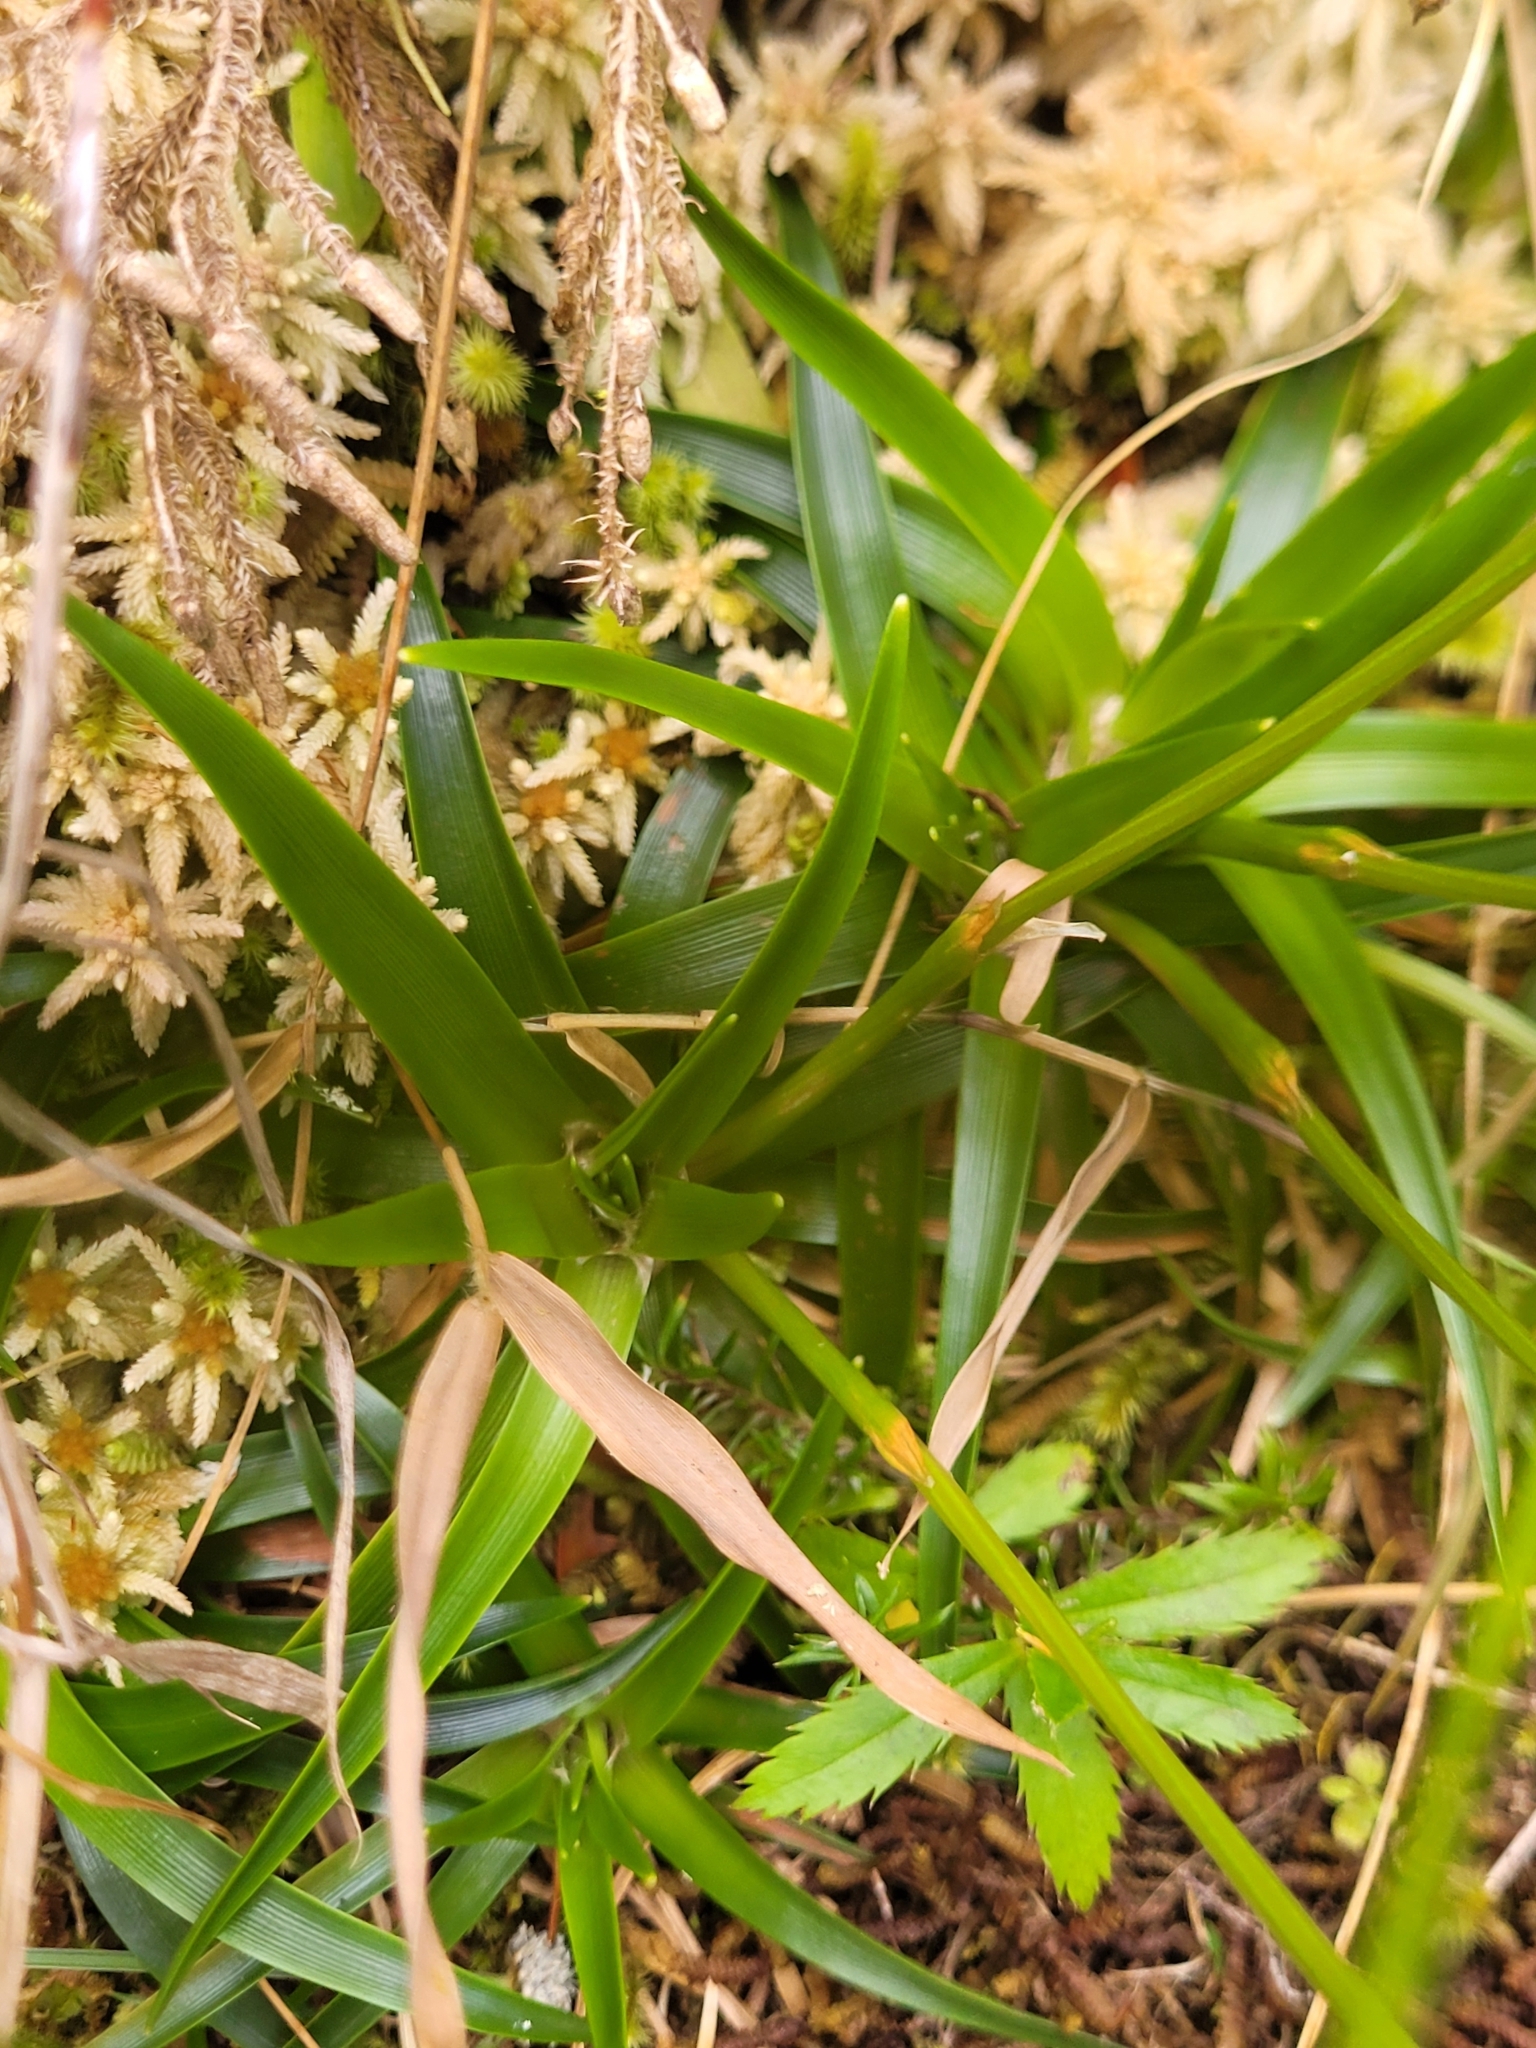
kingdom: Plantae
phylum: Tracheophyta
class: Liliopsida
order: Poales
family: Eriocaulaceae
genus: Eriocaulon
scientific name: Eriocaulon striatum
